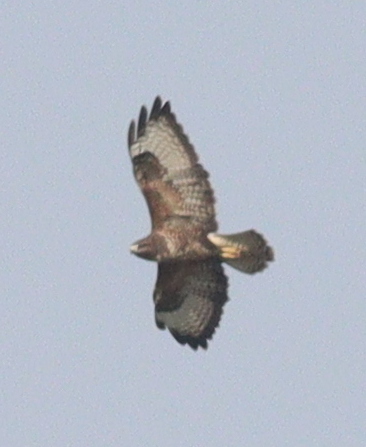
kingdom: Animalia
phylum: Chordata
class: Aves
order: Accipitriformes
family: Accipitridae
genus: Buteo
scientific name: Buteo buteo
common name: Common buzzard
